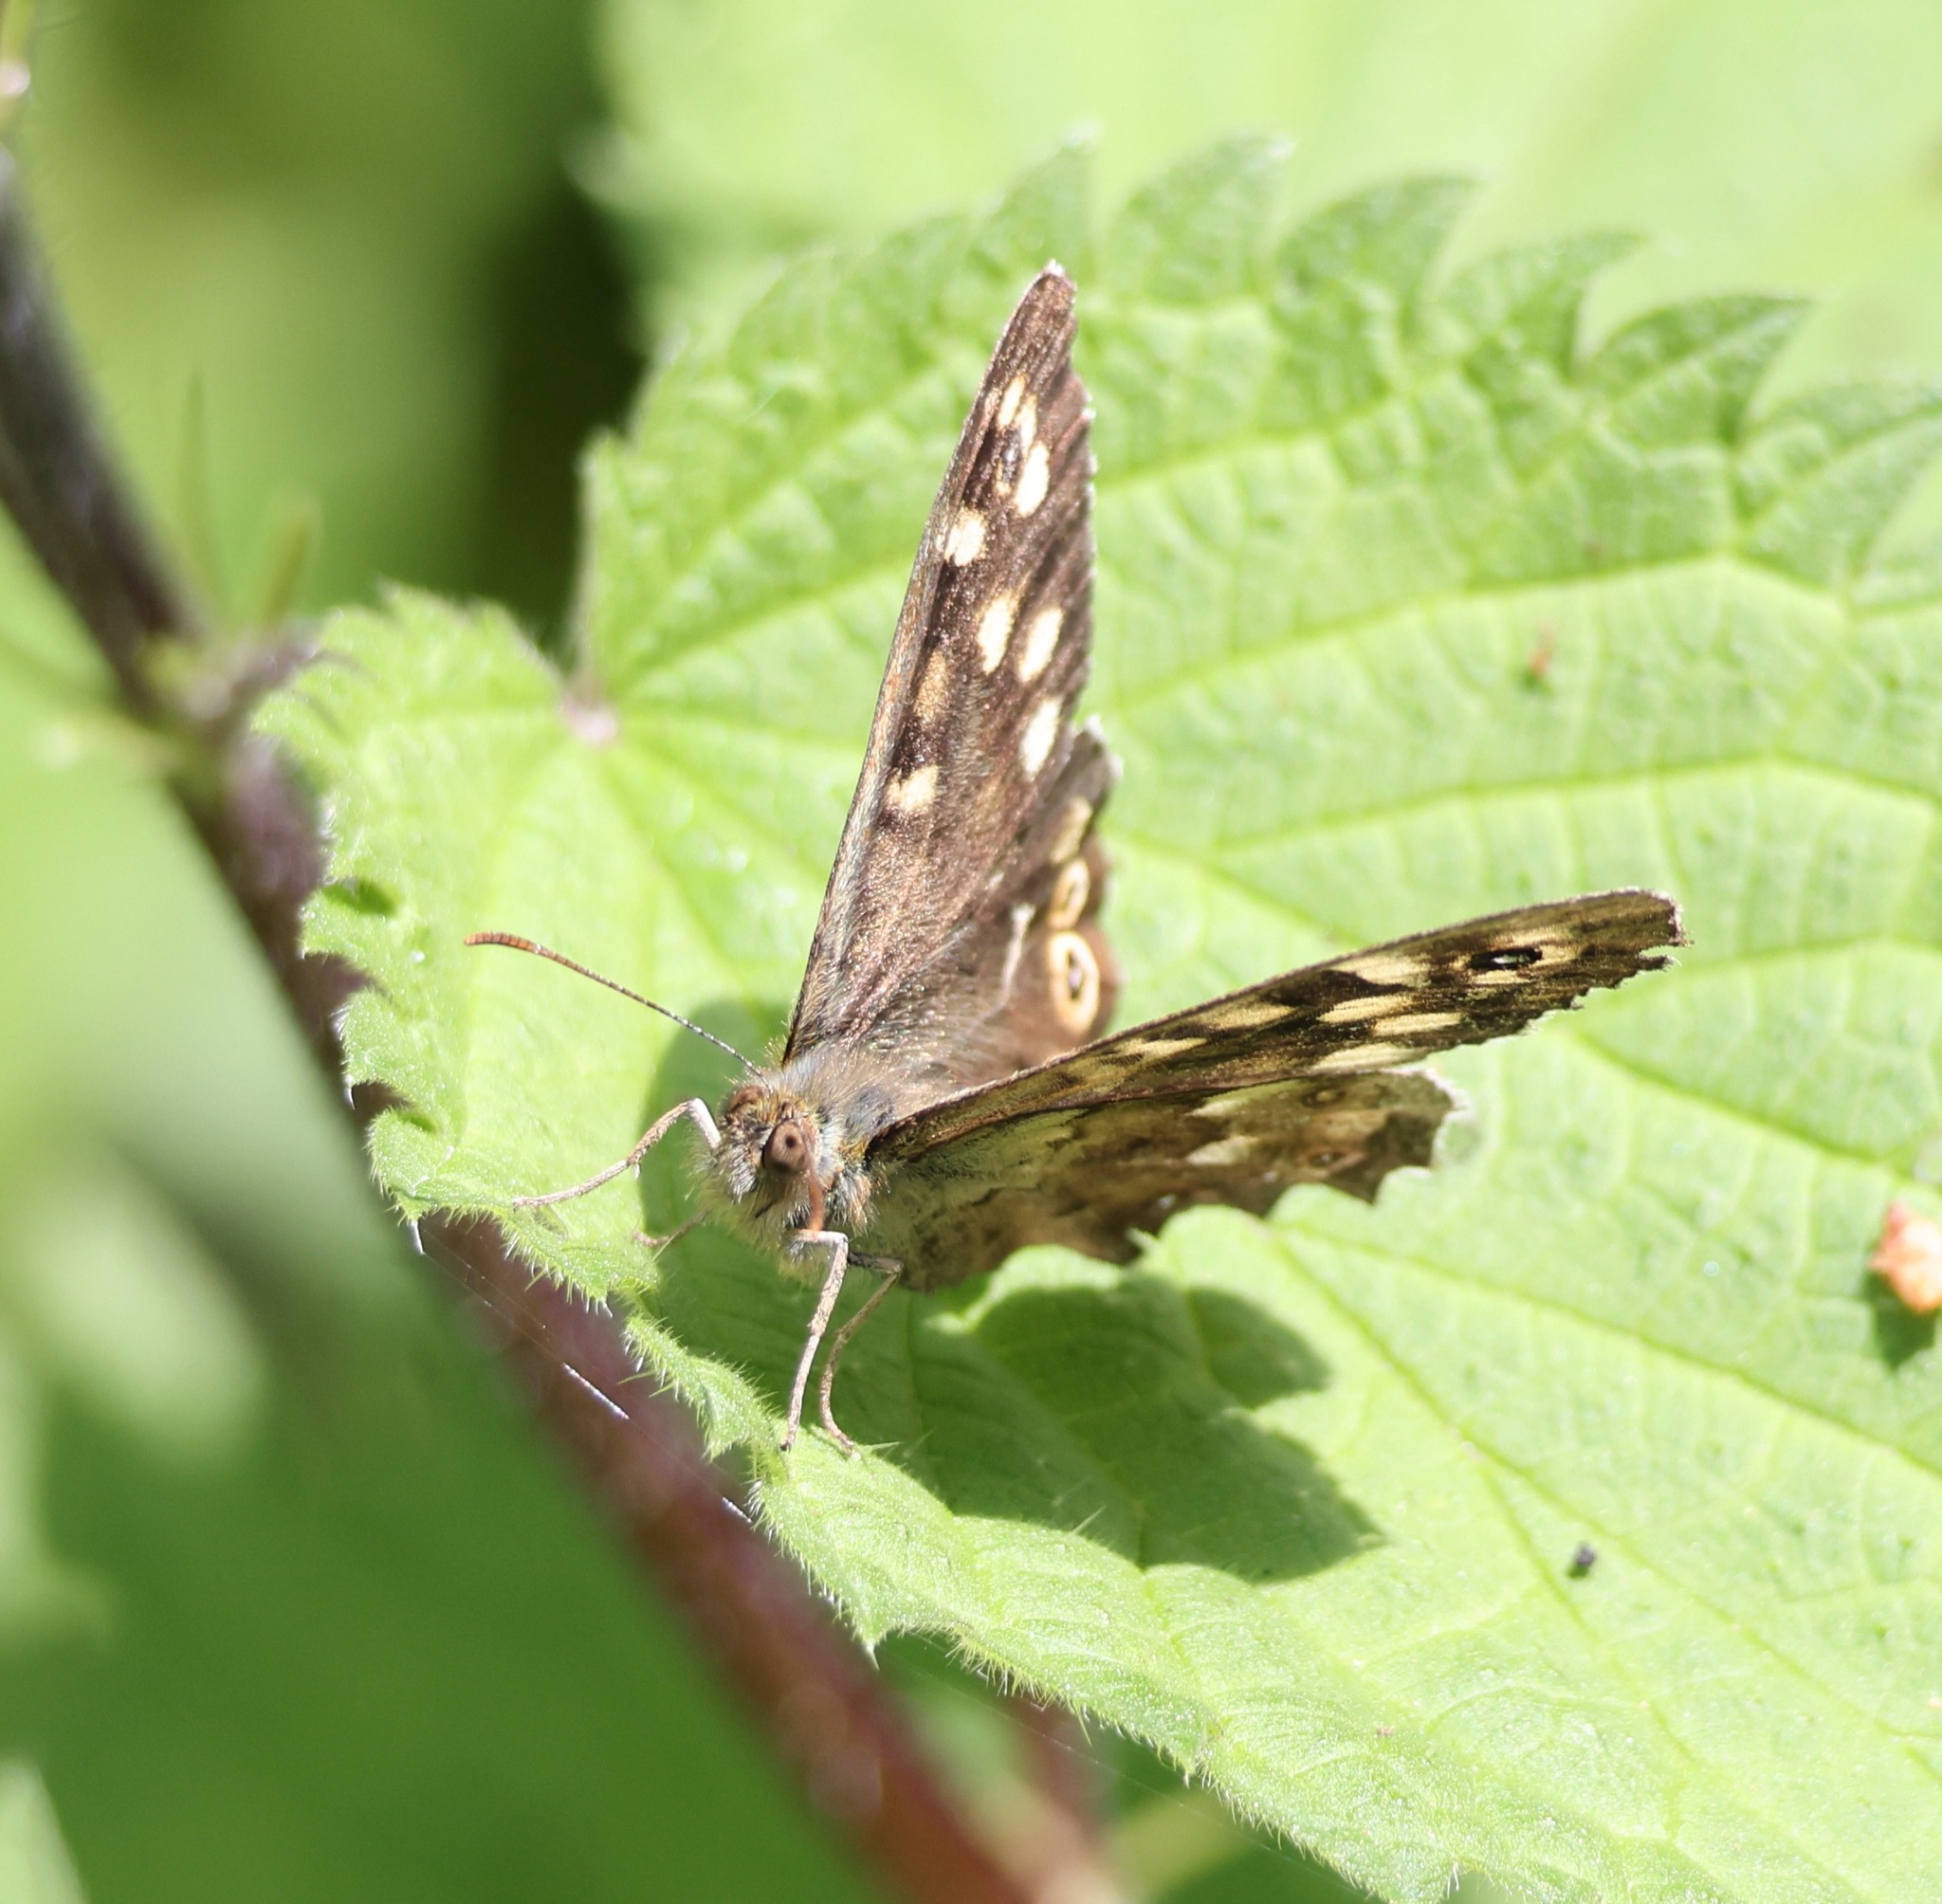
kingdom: Animalia
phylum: Arthropoda
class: Insecta
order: Lepidoptera
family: Nymphalidae
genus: Pararge
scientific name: Pararge aegeria
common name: Speckled wood
